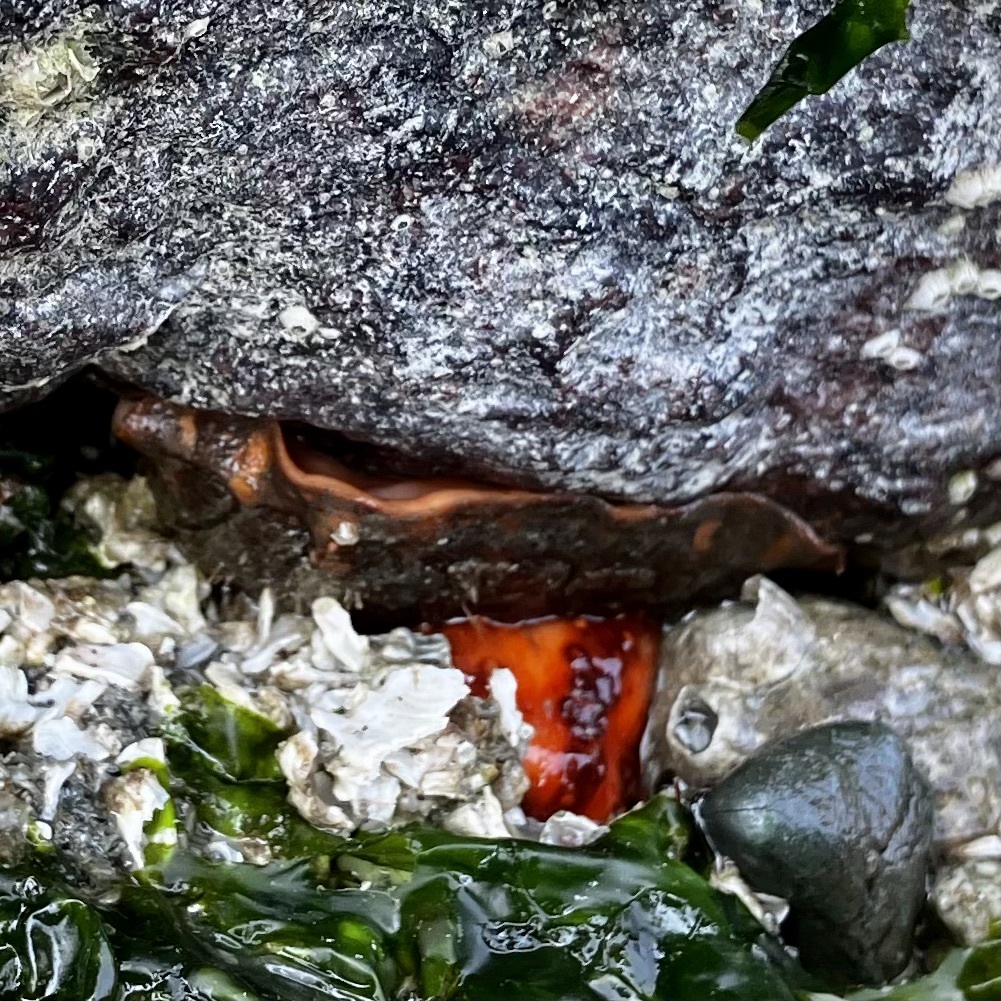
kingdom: Animalia
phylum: Echinodermata
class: Holothuroidea
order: Dendrochirotida
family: Cucumariidae
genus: Cucumaria
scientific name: Cucumaria miniata
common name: Orange sea cucumber
